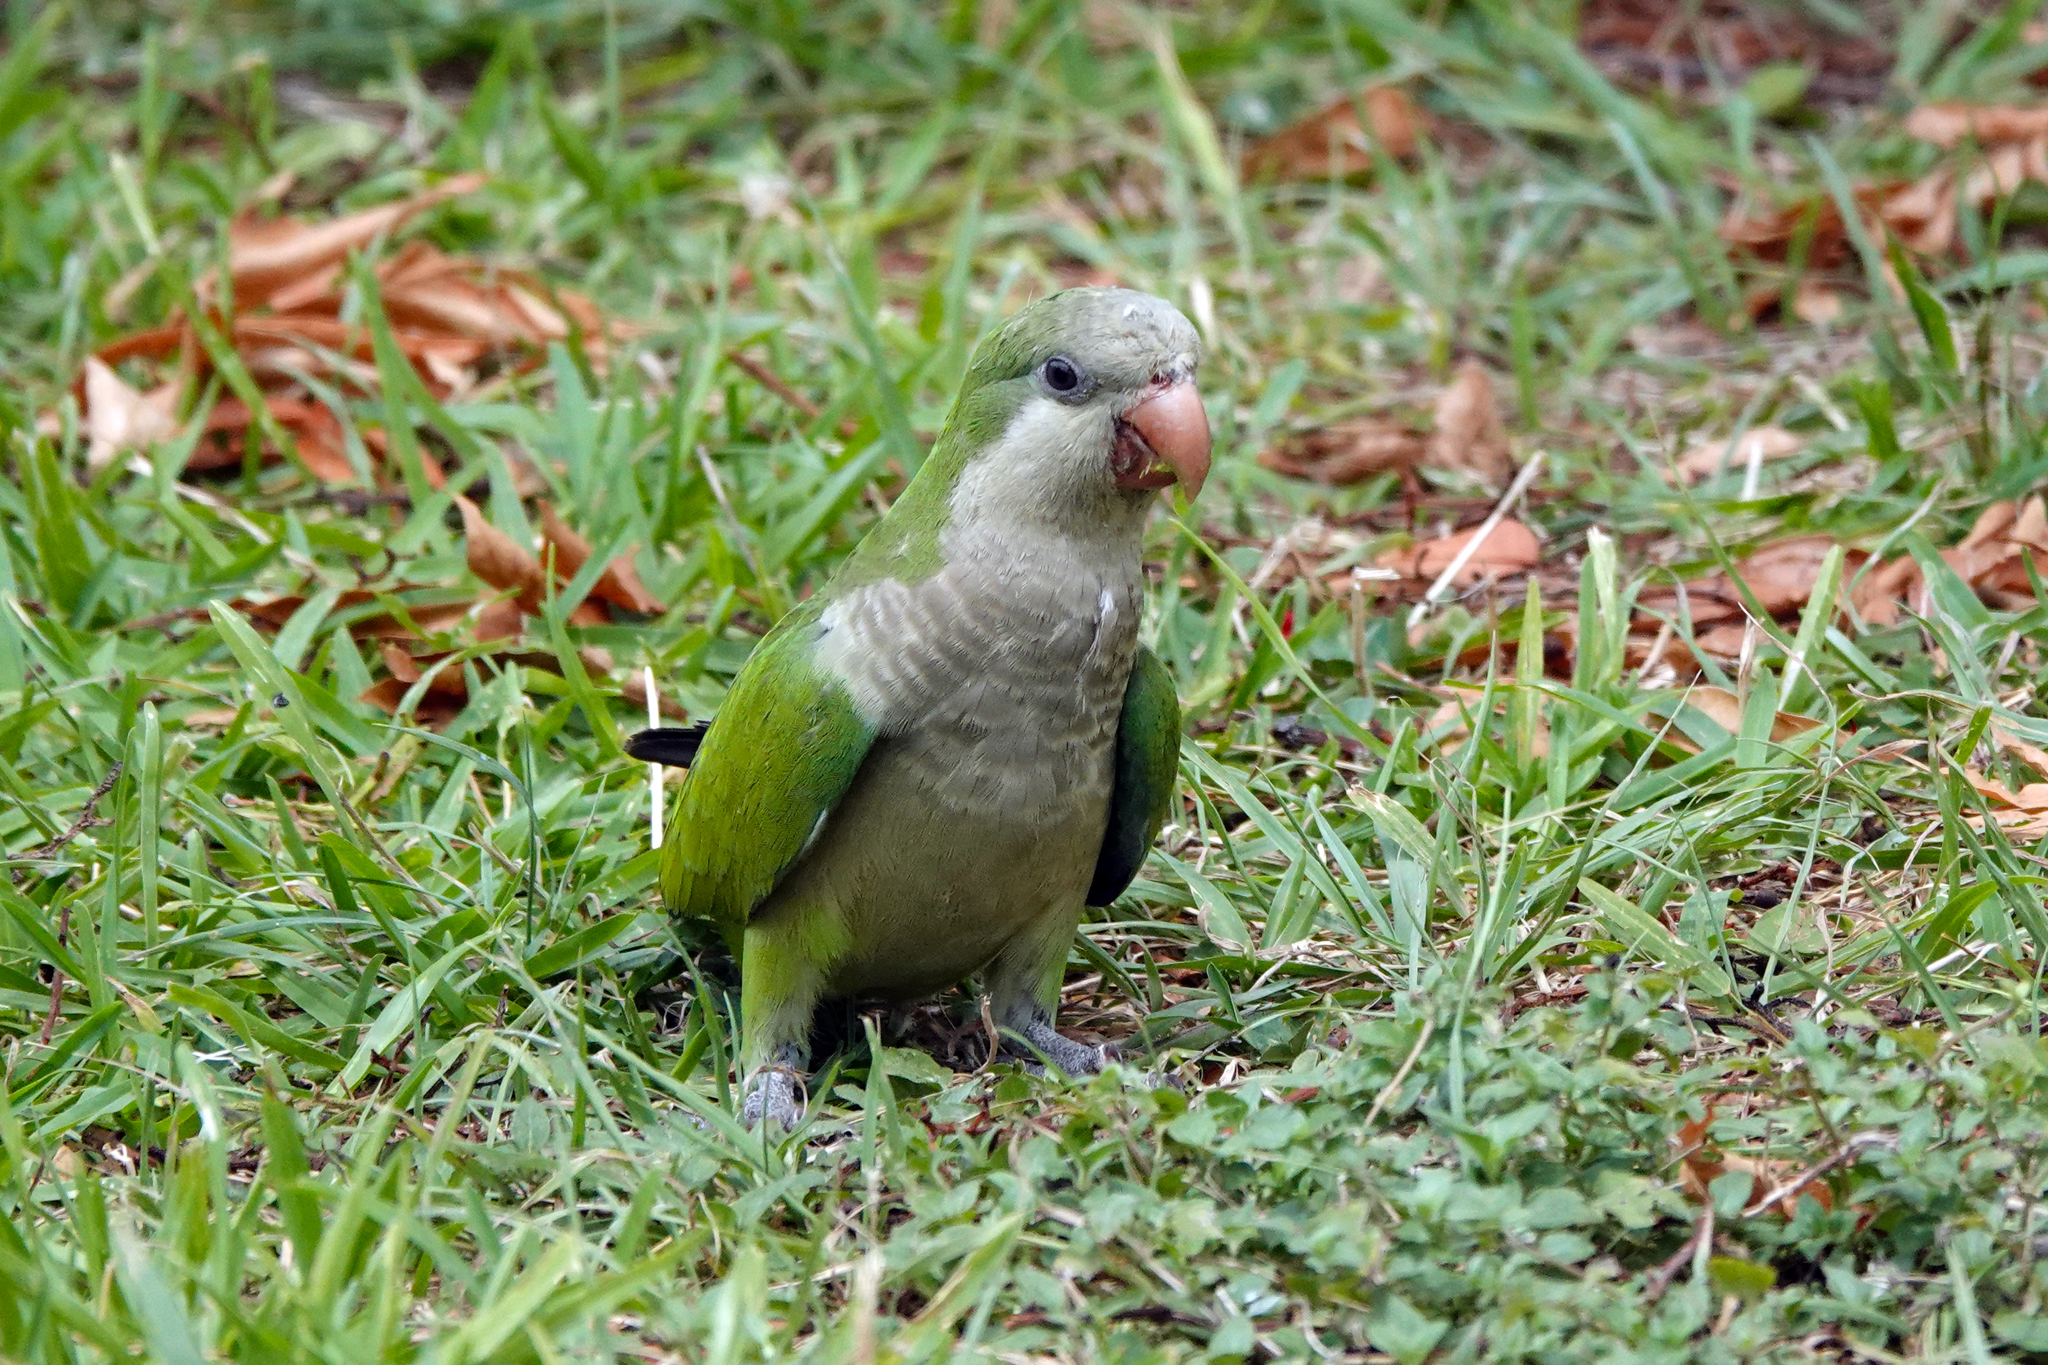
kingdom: Animalia
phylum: Chordata
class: Aves
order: Psittaciformes
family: Psittacidae
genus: Myiopsitta
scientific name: Myiopsitta monachus
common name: Monk parakeet
